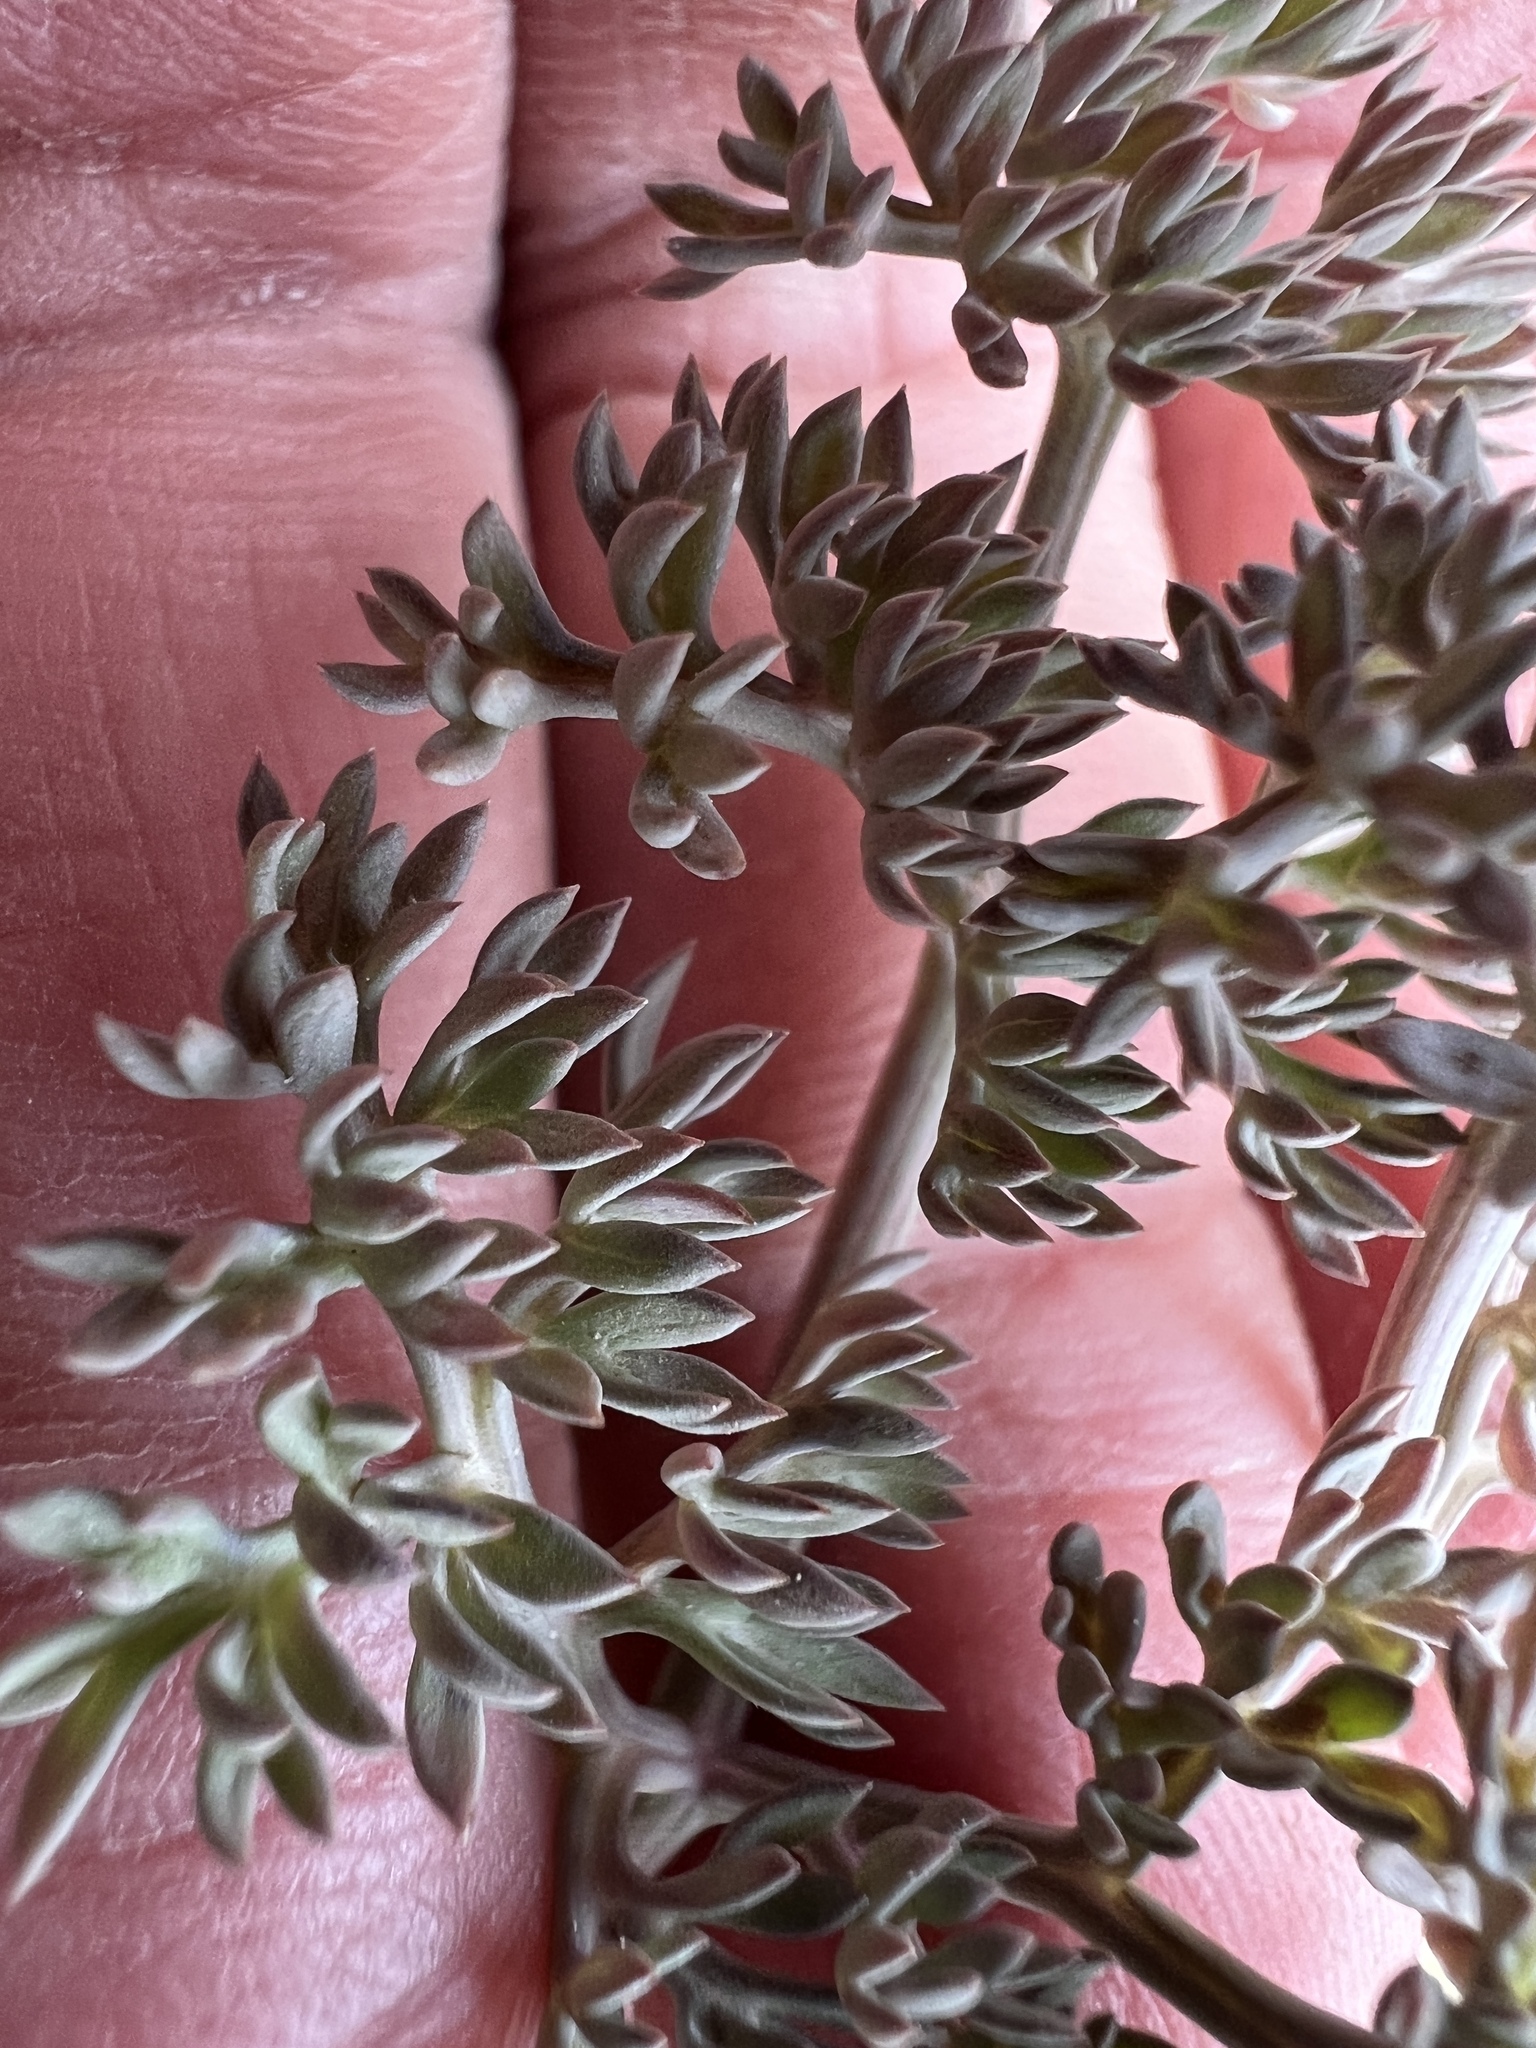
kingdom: Plantae
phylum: Tracheophyta
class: Magnoliopsida
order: Apiales
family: Apiaceae
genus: Lomatium
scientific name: Lomatium cuspidatum
